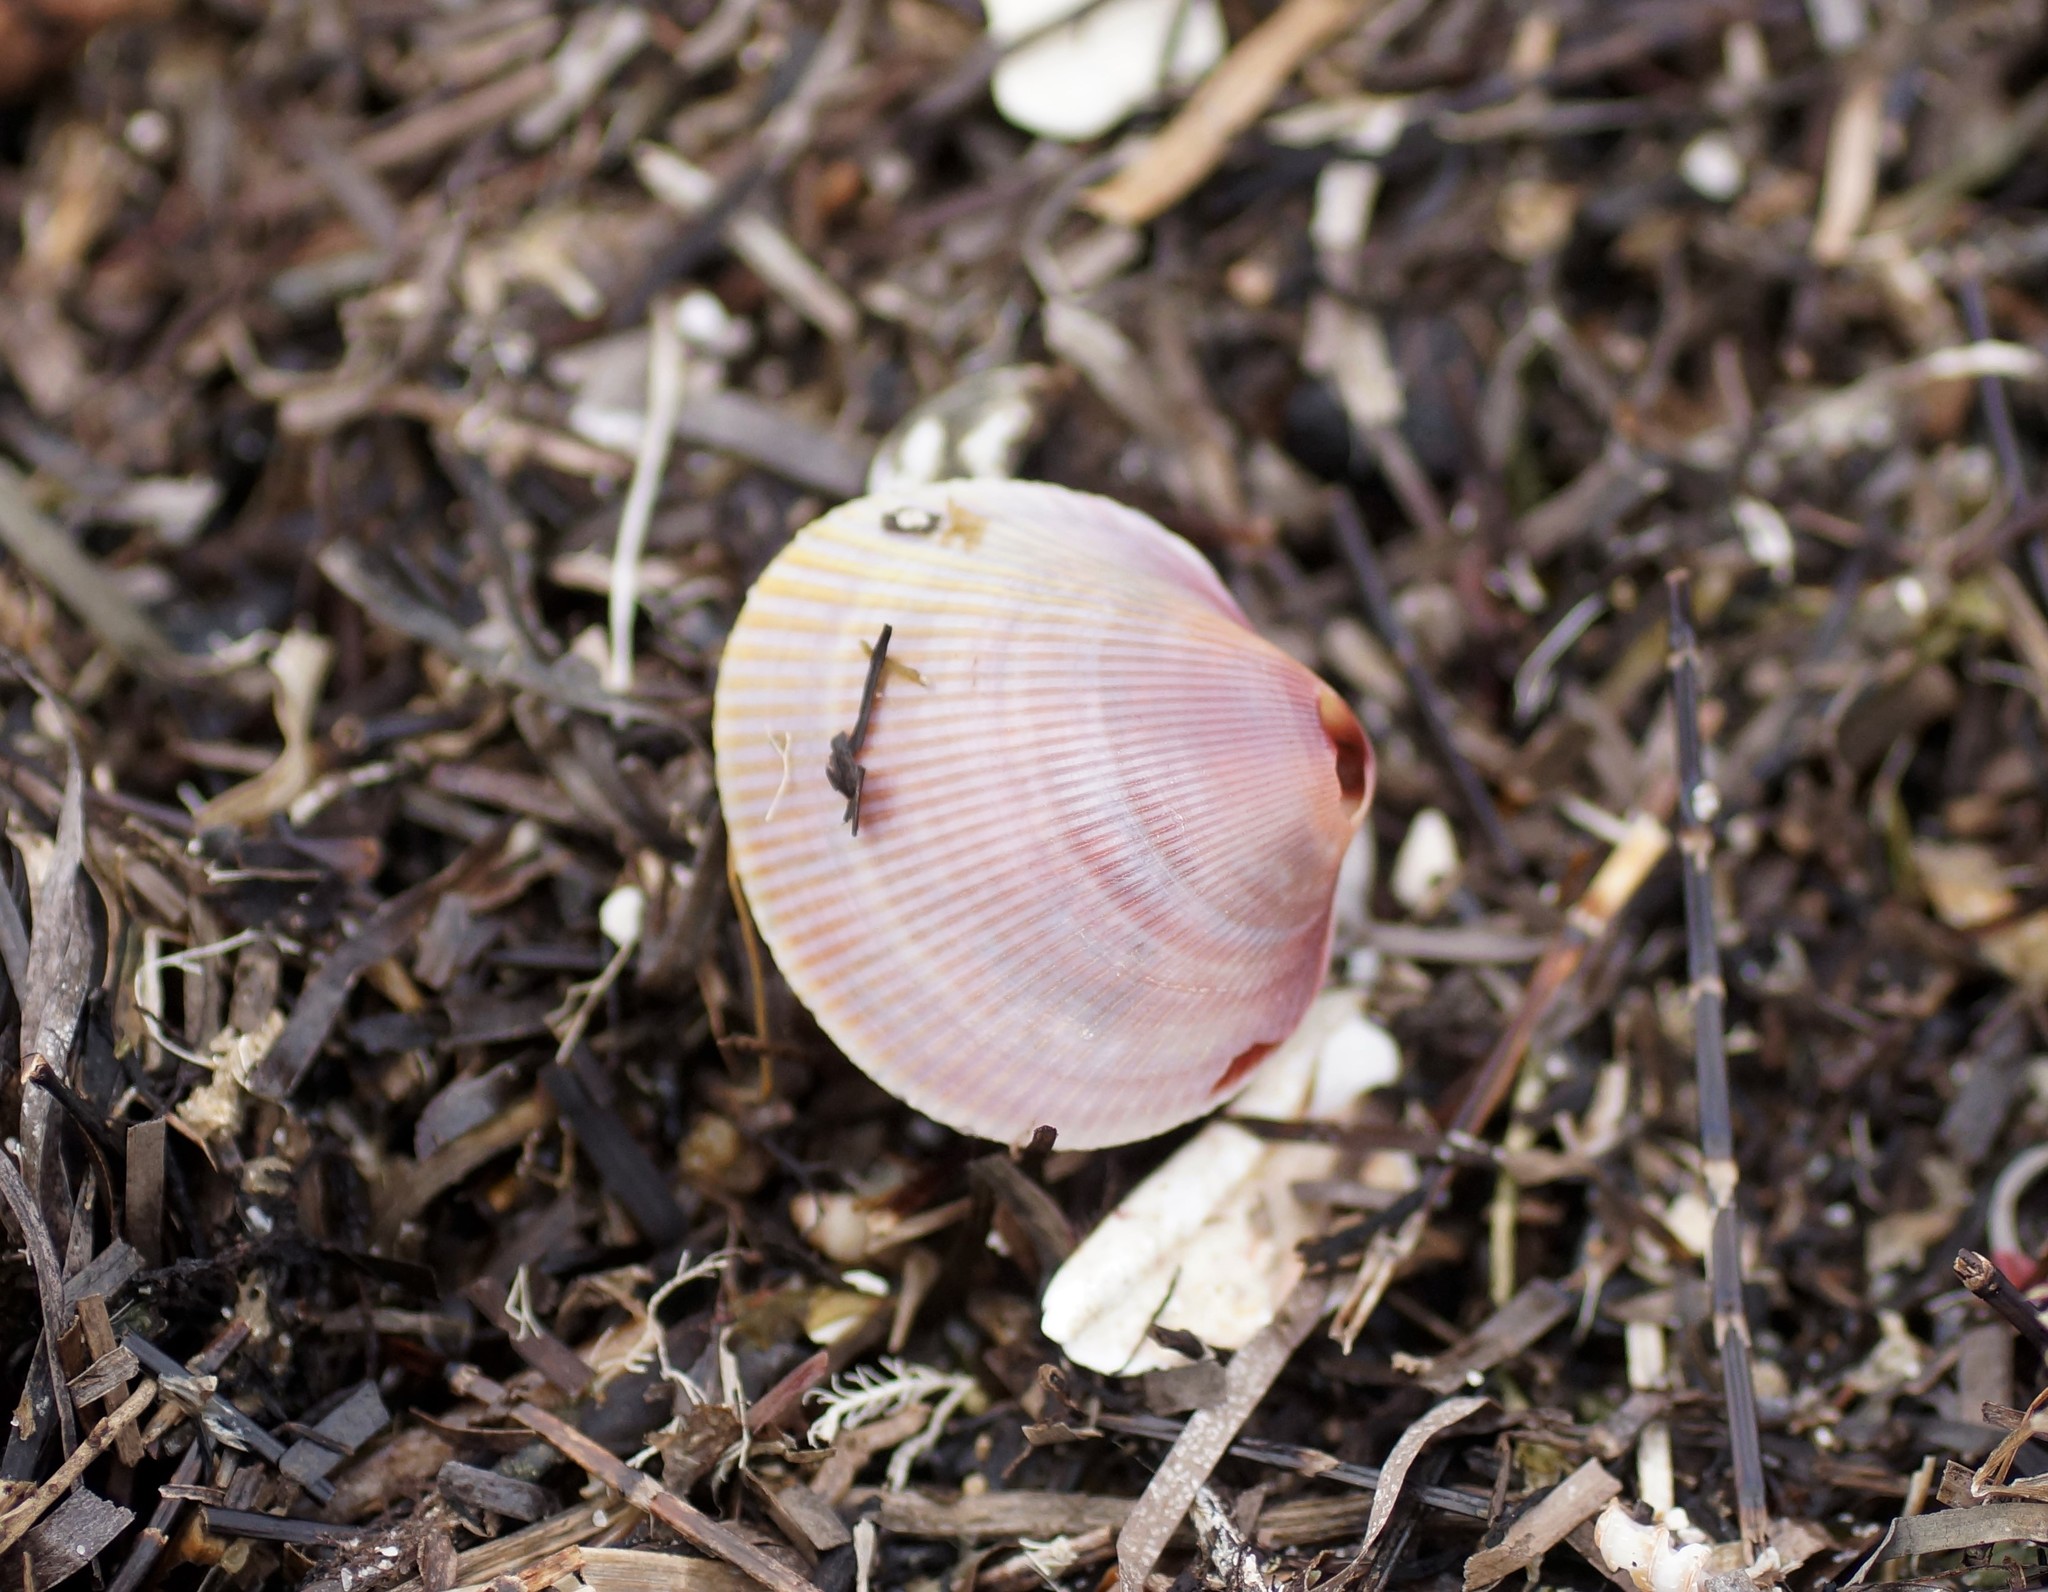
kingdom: Animalia
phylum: Mollusca
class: Bivalvia
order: Cardiida
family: Cardiidae
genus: Fulvia
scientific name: Fulvia tenuicostata
